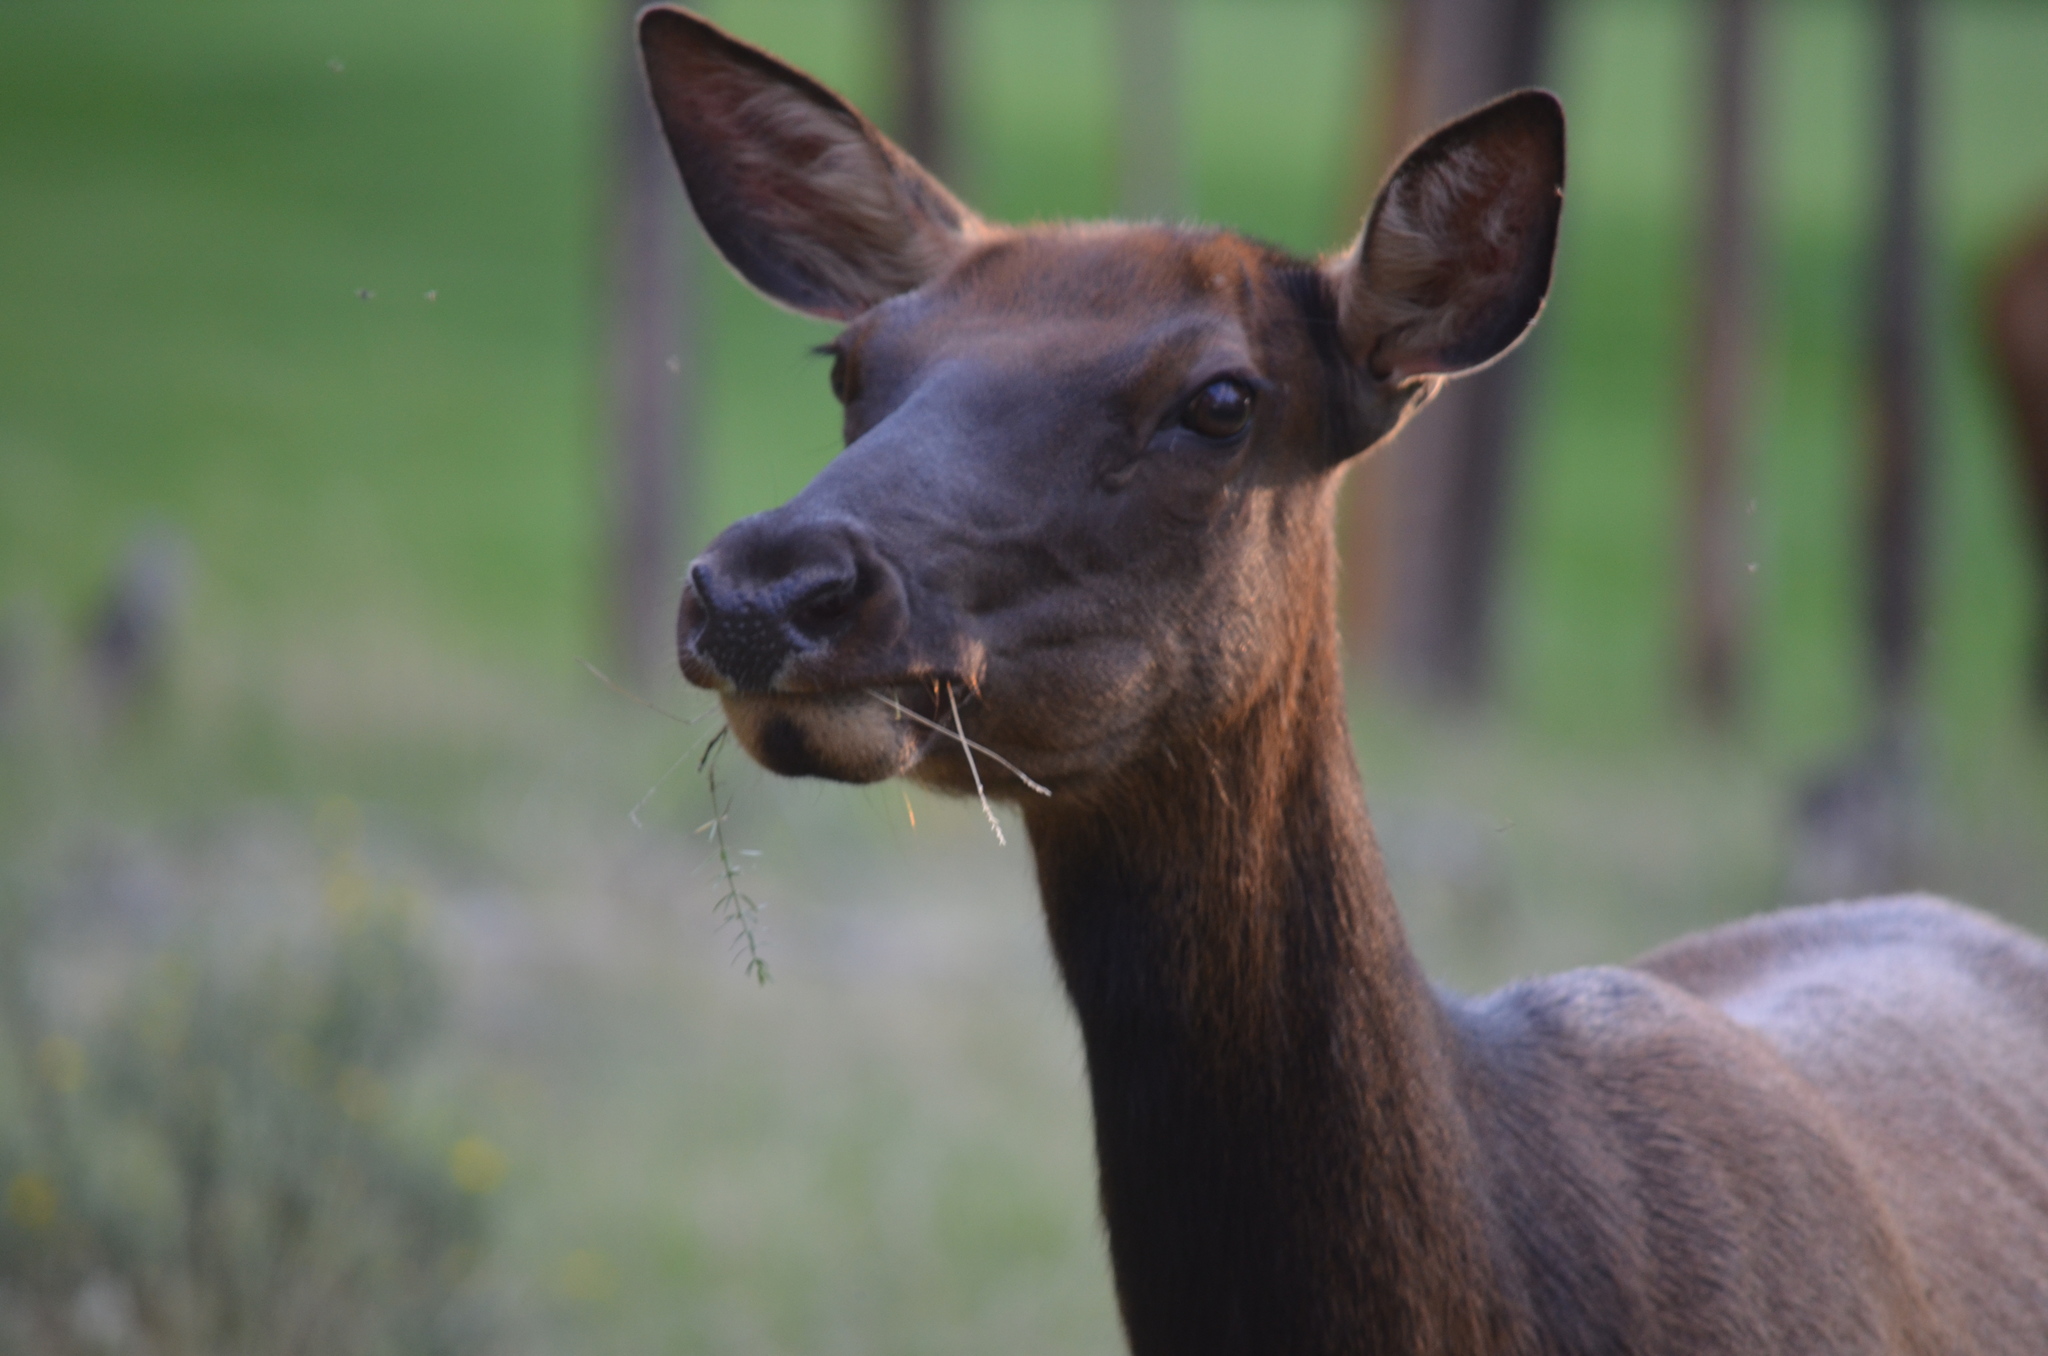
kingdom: Animalia
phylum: Chordata
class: Mammalia
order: Artiodactyla
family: Cervidae
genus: Cervus
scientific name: Cervus elaphus
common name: Red deer
